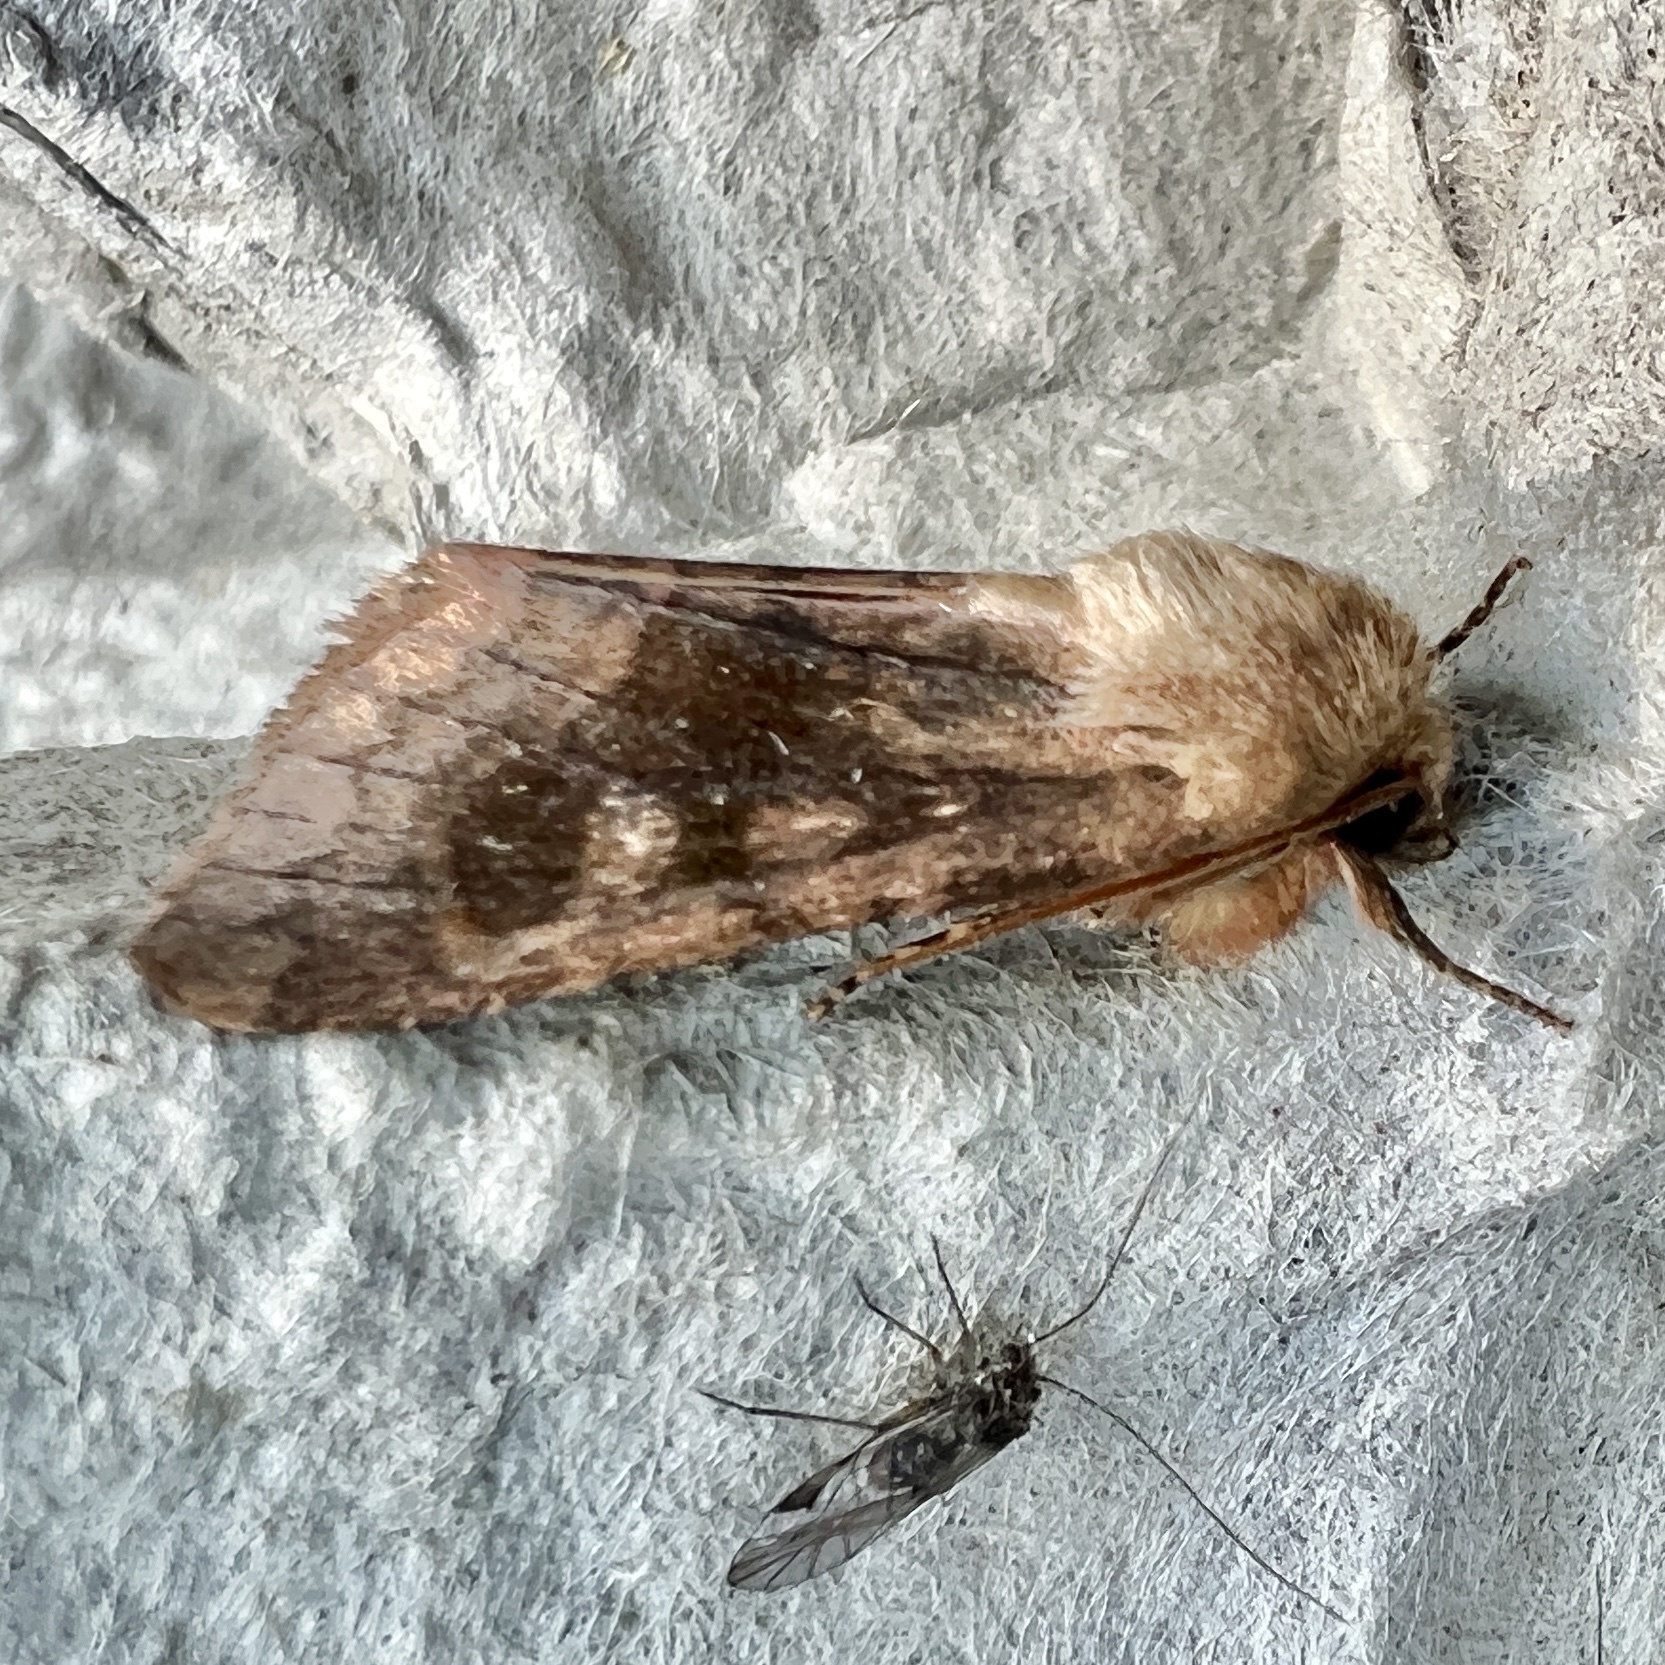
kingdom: Animalia
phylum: Arthropoda
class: Insecta
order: Lepidoptera
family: Noctuidae
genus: Nephelodes
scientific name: Nephelodes minians
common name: Bronzed cutworm
